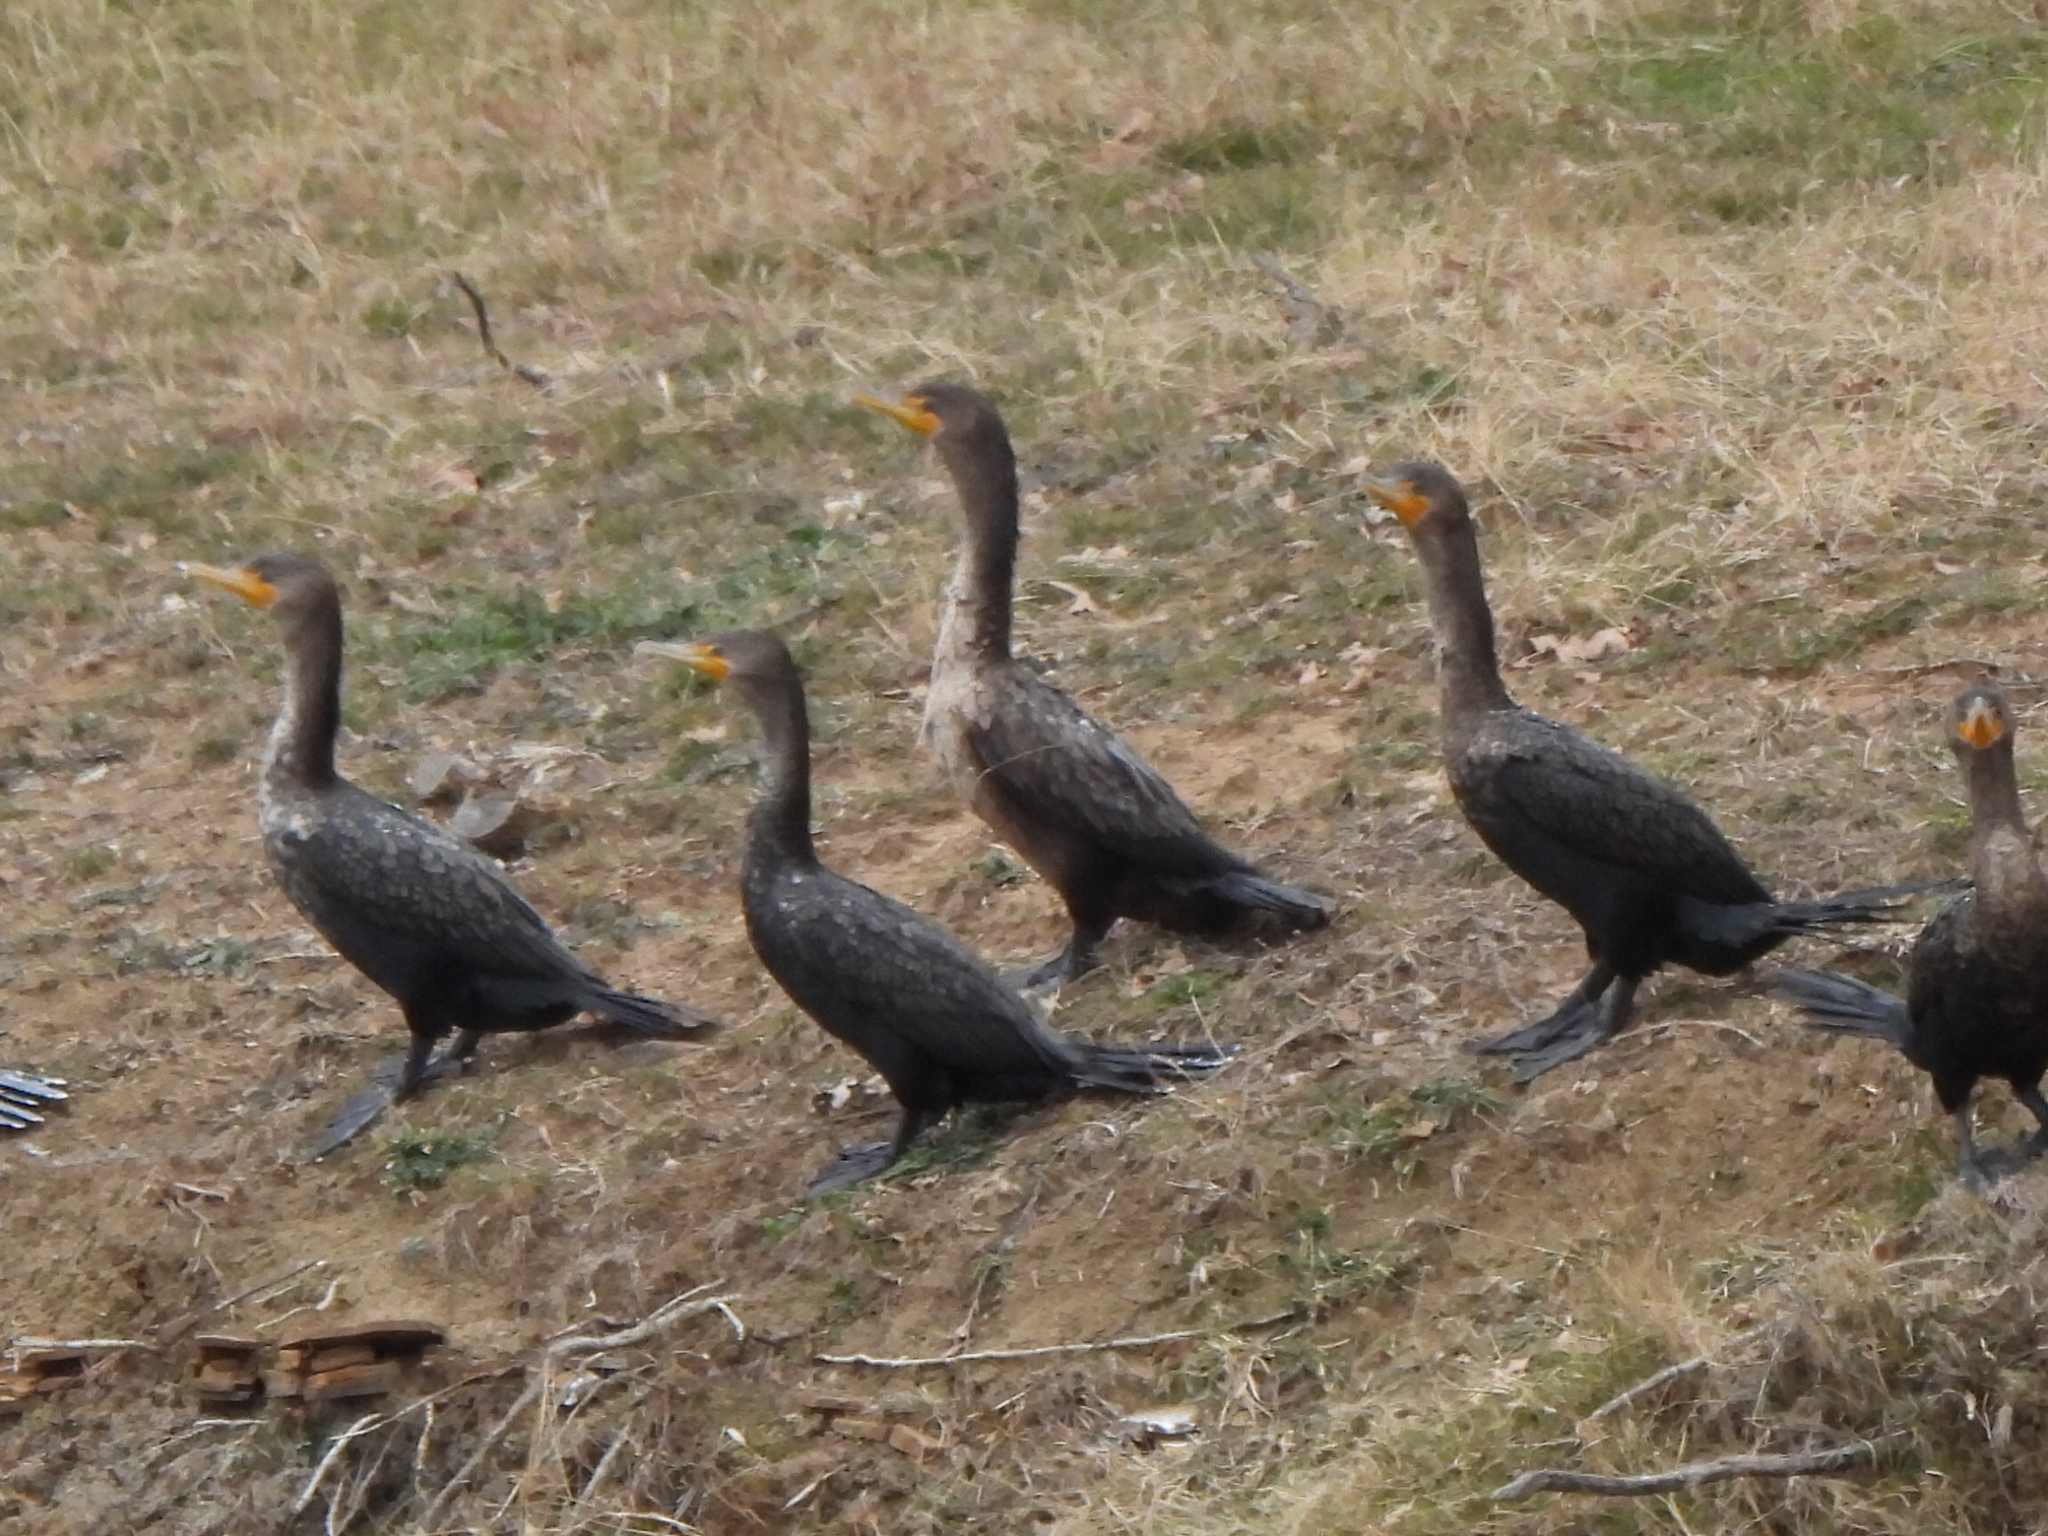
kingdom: Animalia
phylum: Chordata
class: Aves
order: Suliformes
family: Phalacrocoracidae
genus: Phalacrocorax
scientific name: Phalacrocorax auritus
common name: Double-crested cormorant
